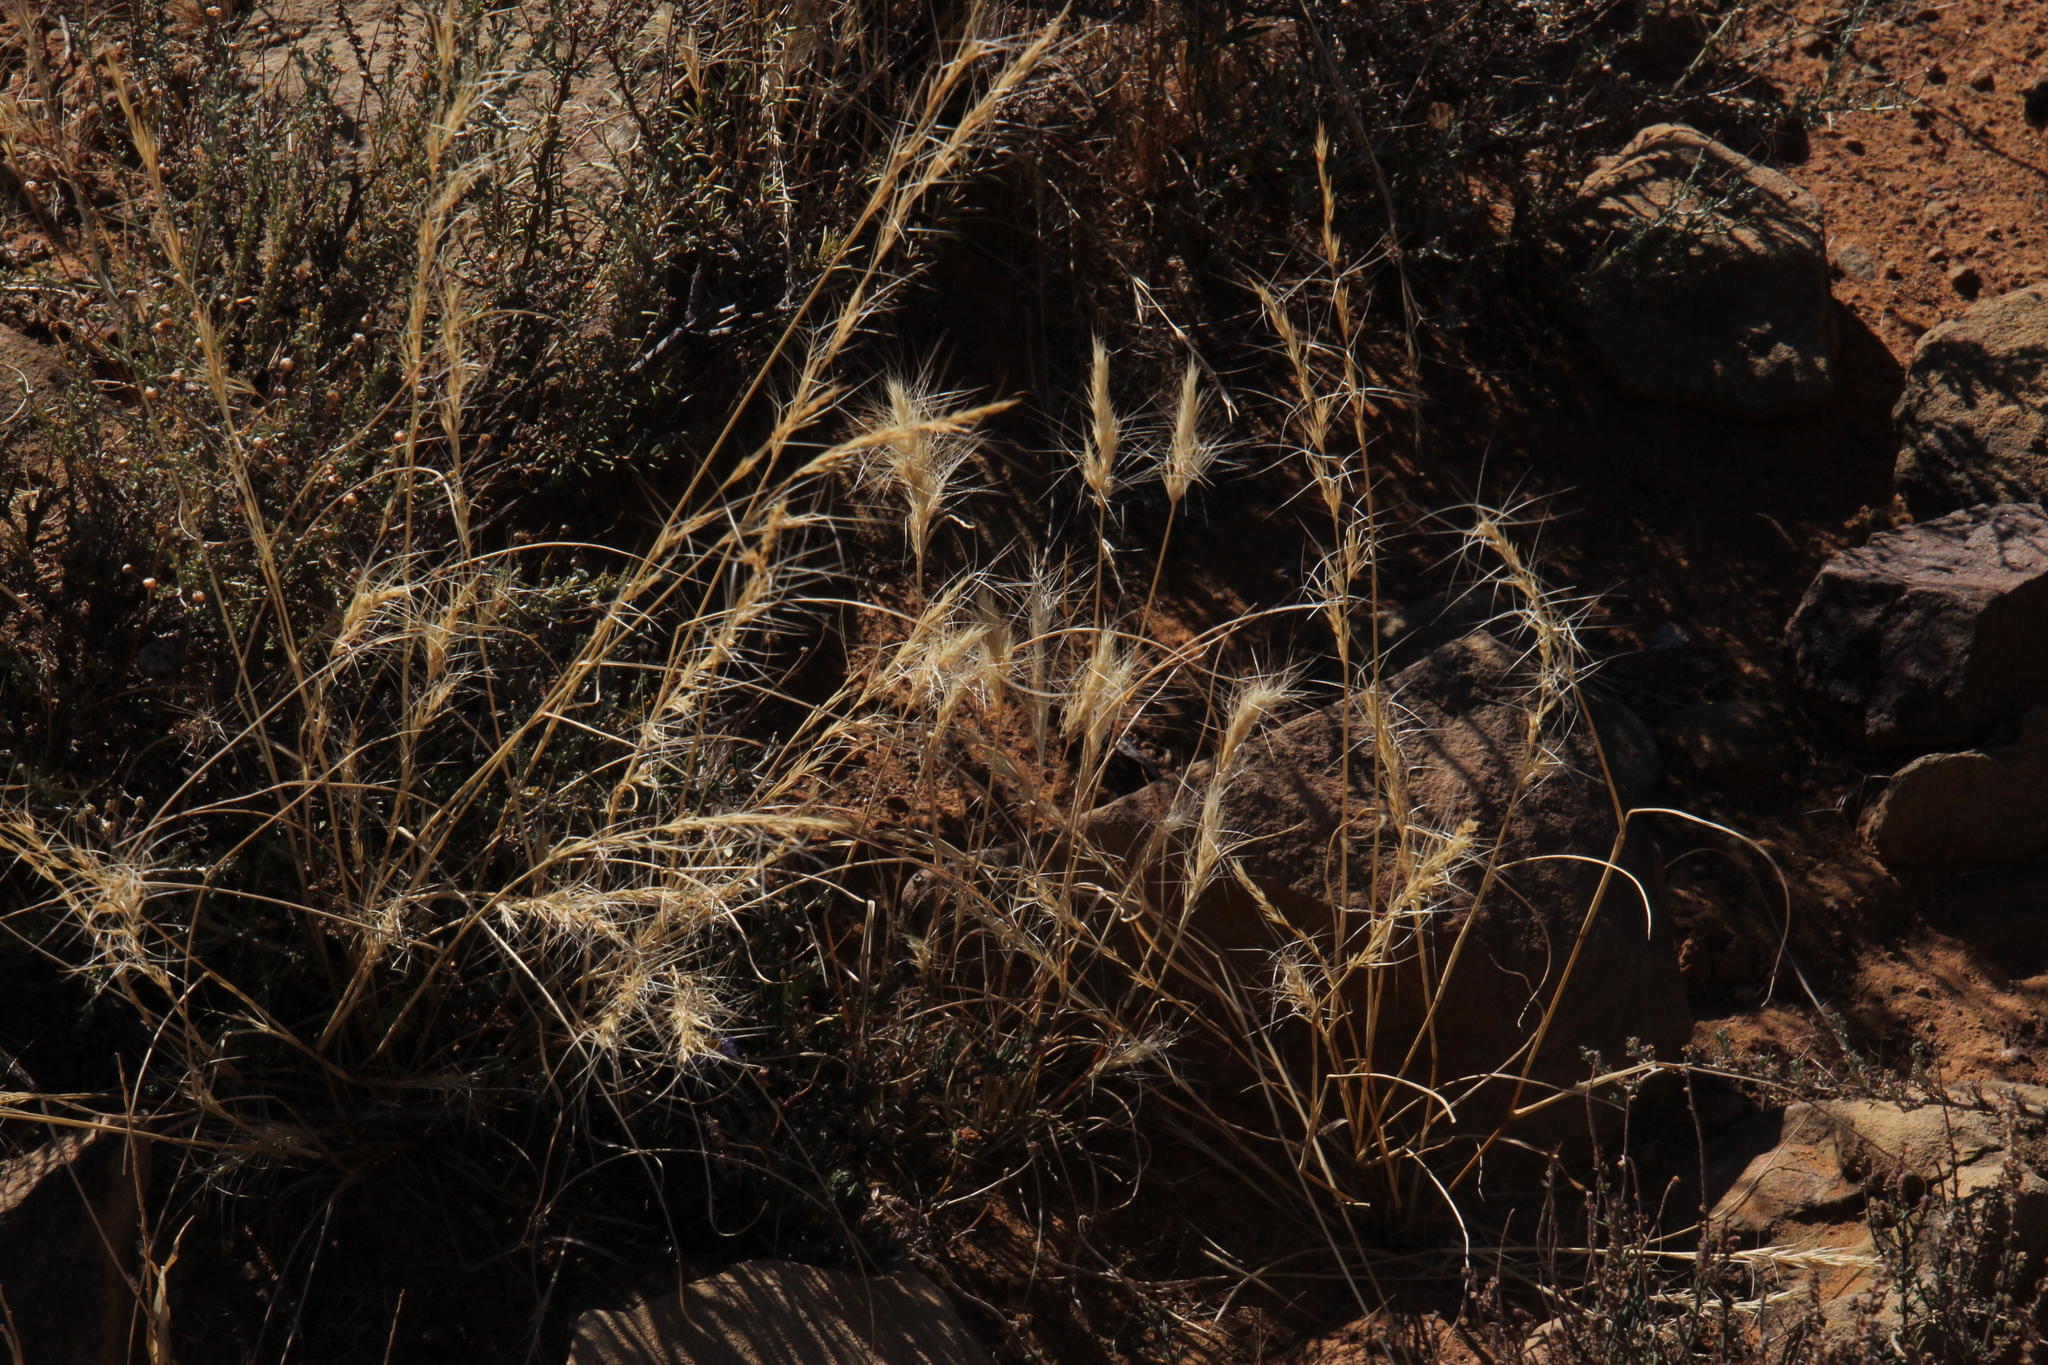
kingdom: Plantae
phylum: Tracheophyta
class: Liliopsida
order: Poales
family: Poaceae
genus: Aristida
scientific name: Aristida congesta
